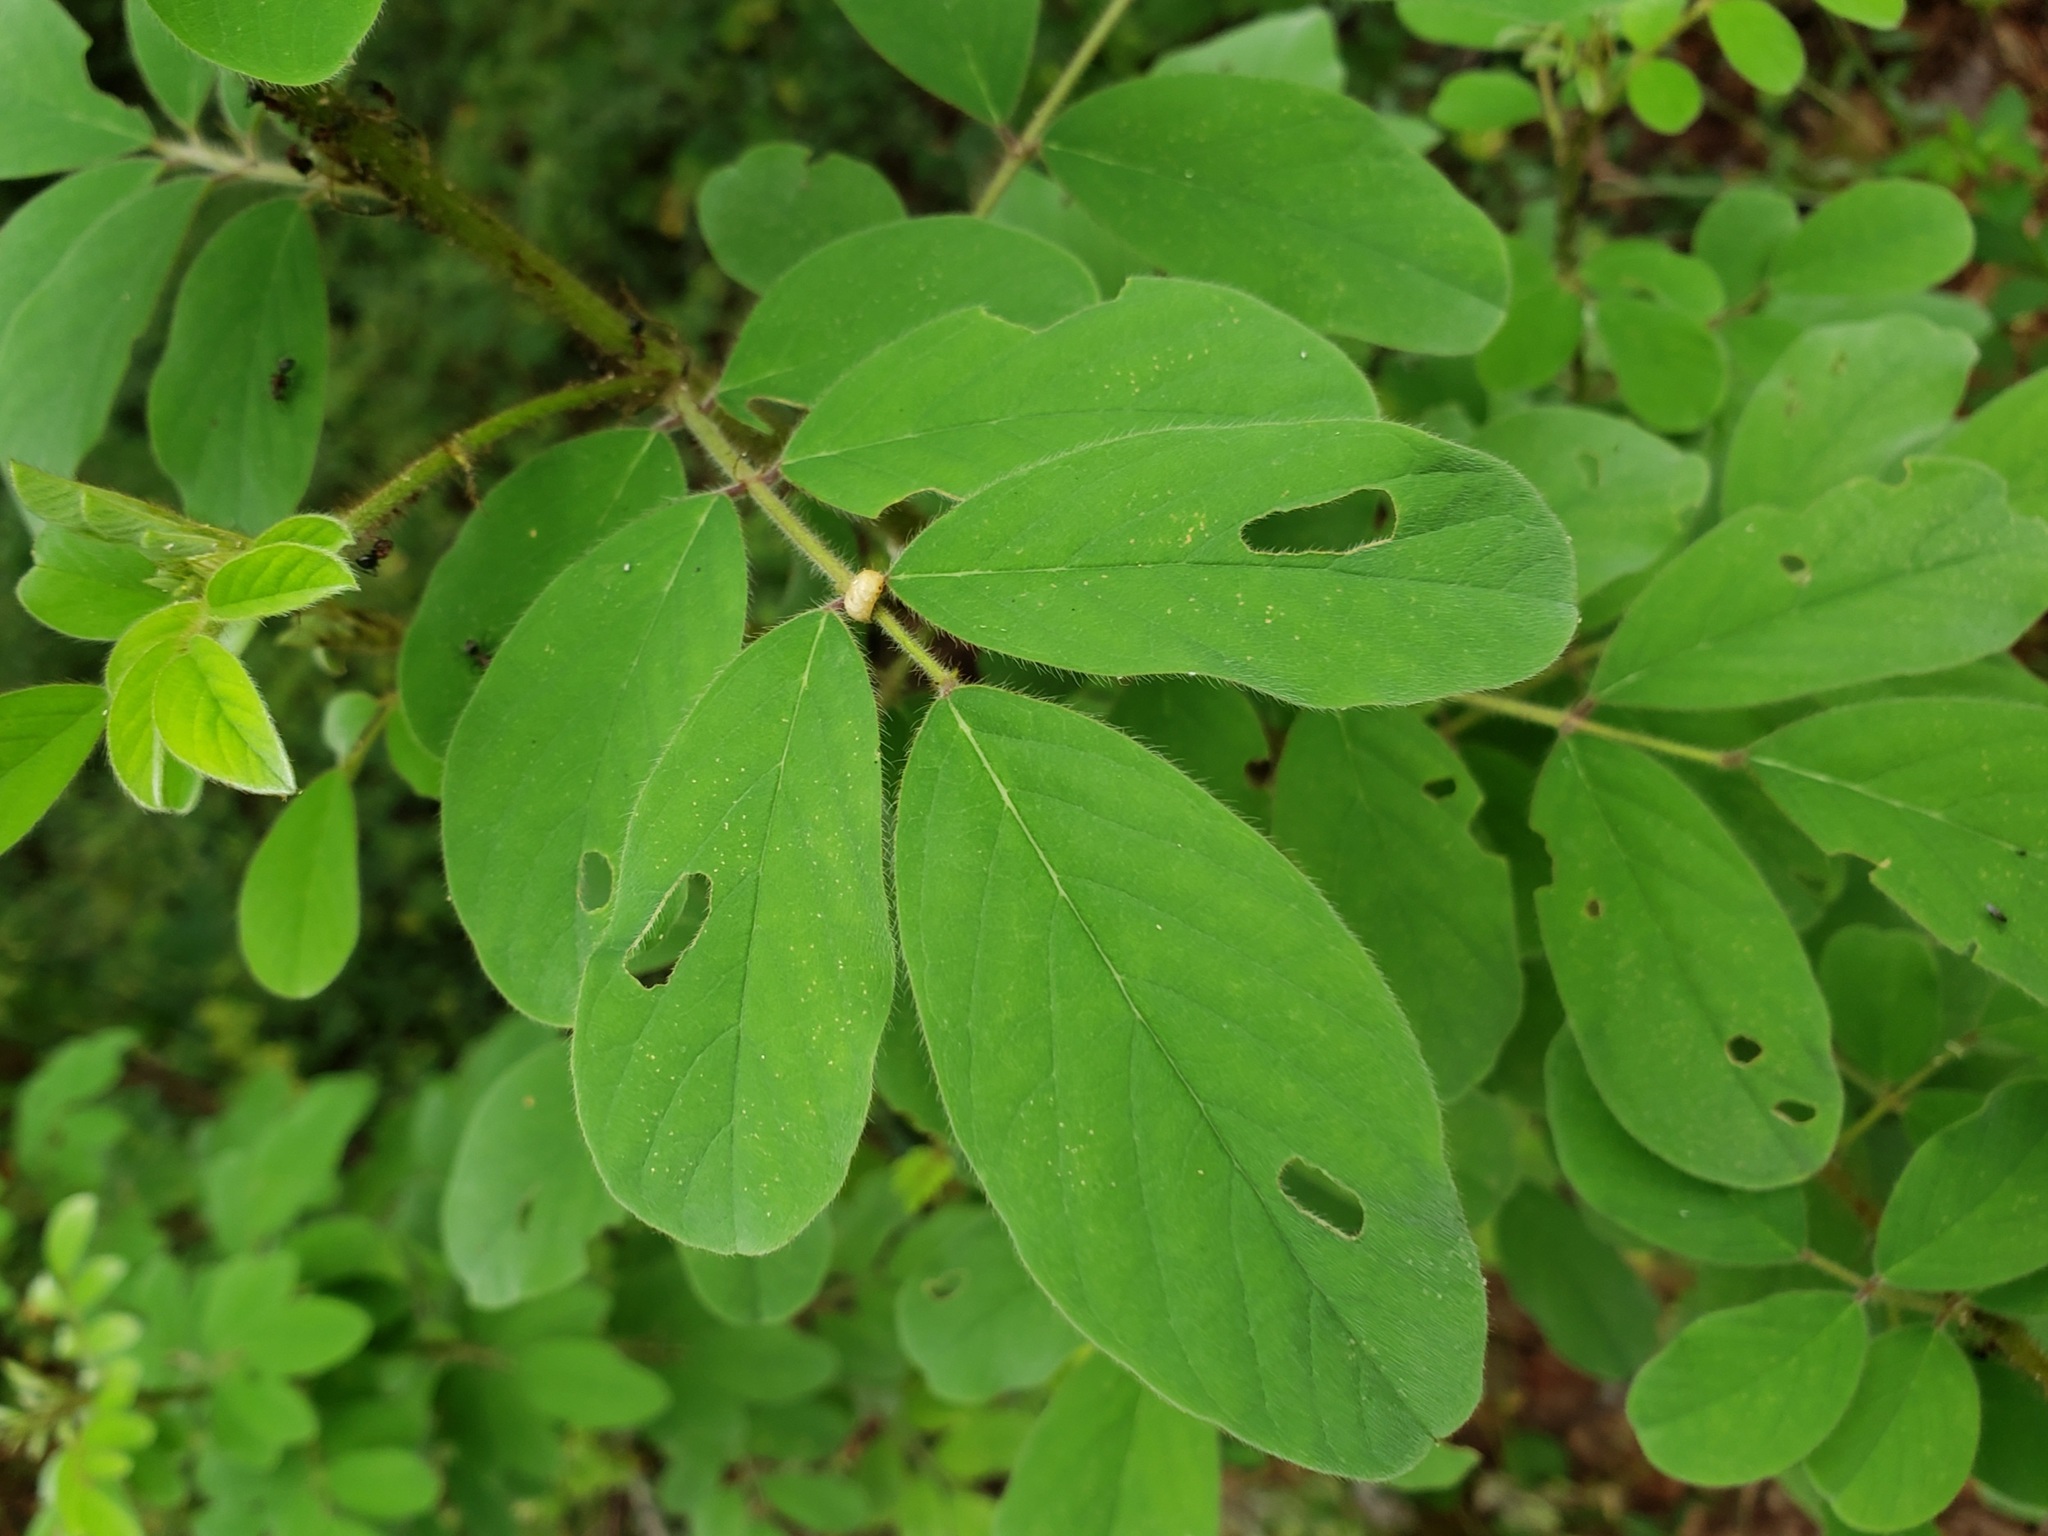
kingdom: Plantae
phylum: Tracheophyta
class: Magnoliopsida
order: Fabales
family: Fabaceae
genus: Indigofera
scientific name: Indigofera hirsuta
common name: Hairy indigo
